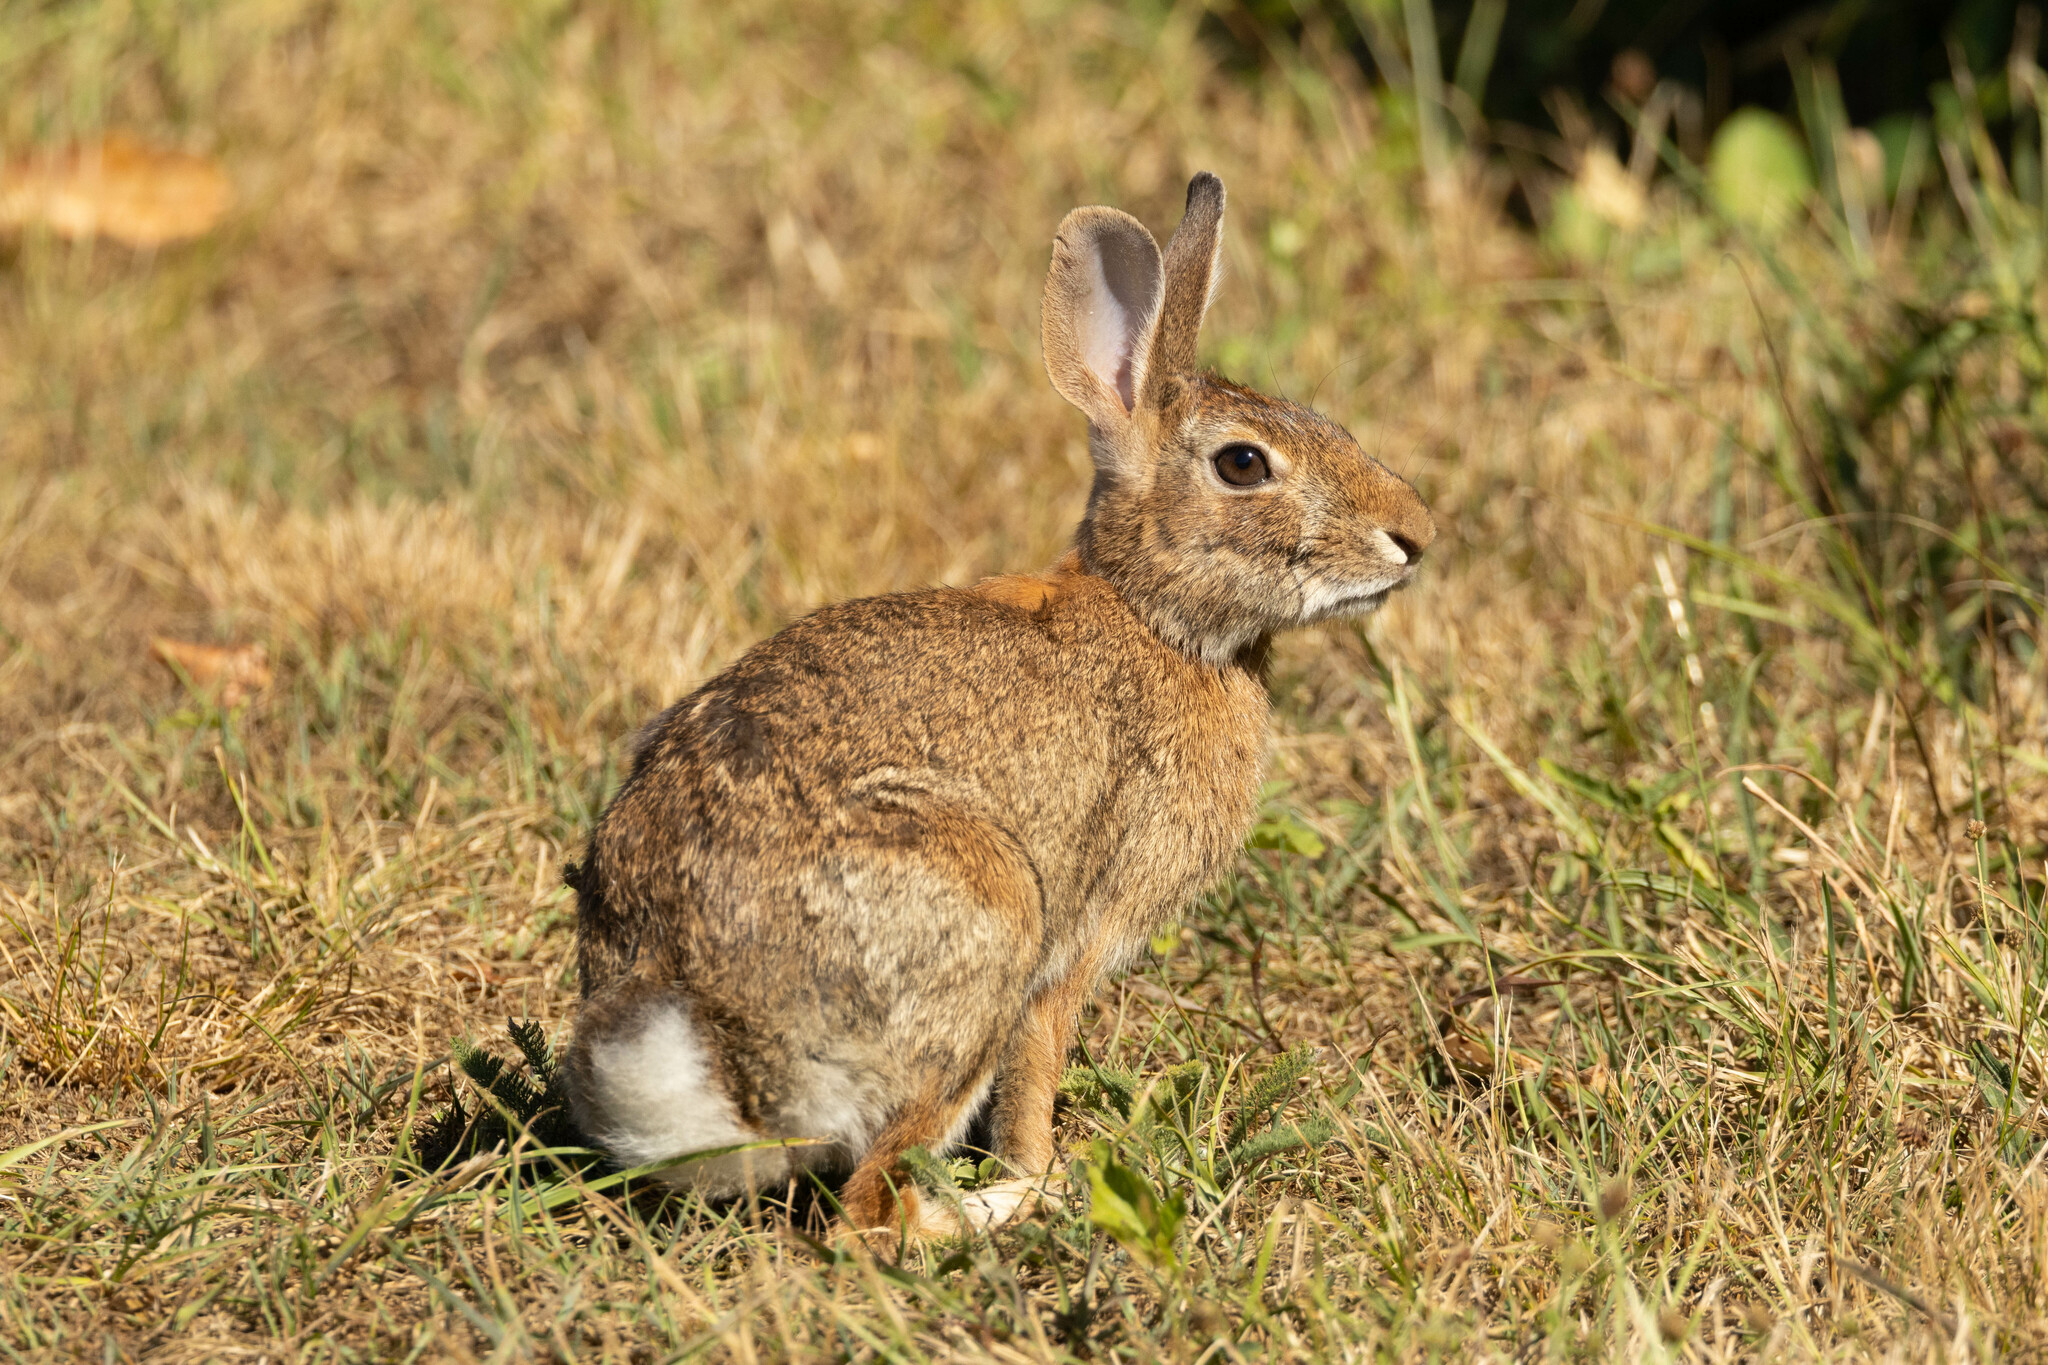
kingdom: Animalia
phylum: Chordata
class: Mammalia
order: Lagomorpha
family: Leporidae
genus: Sylvilagus
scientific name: Sylvilagus floridanus
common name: Eastern cottontail
